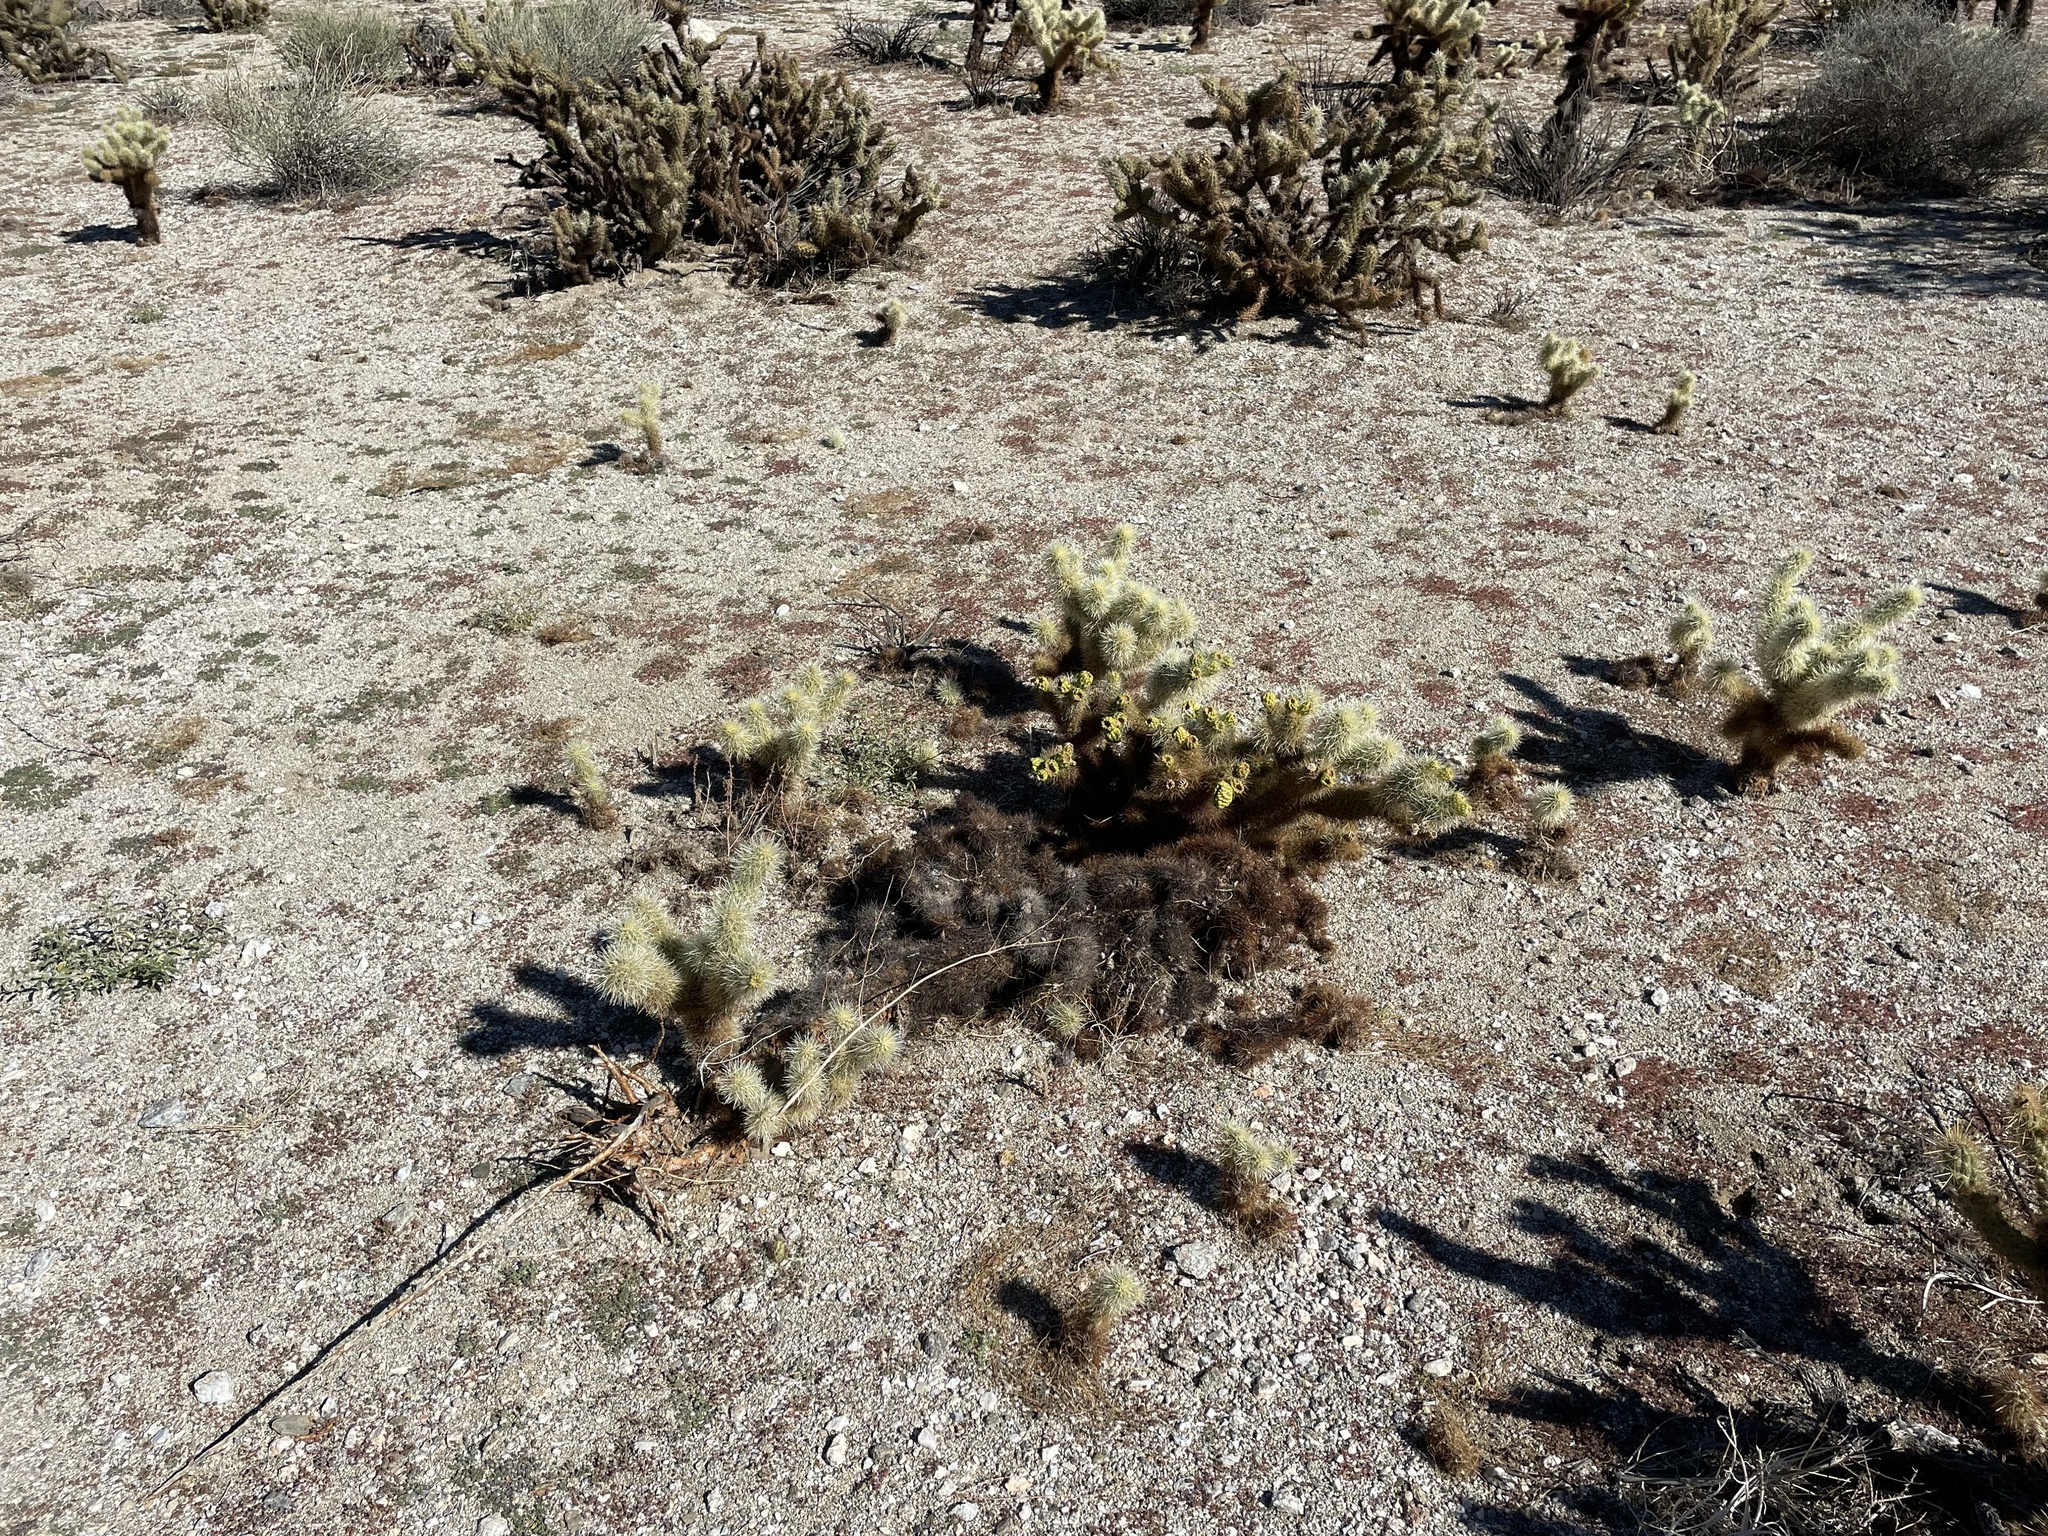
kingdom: Plantae
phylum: Tracheophyta
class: Magnoliopsida
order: Caryophyllales
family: Cactaceae
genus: Cylindropuntia
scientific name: Cylindropuntia fosbergii
